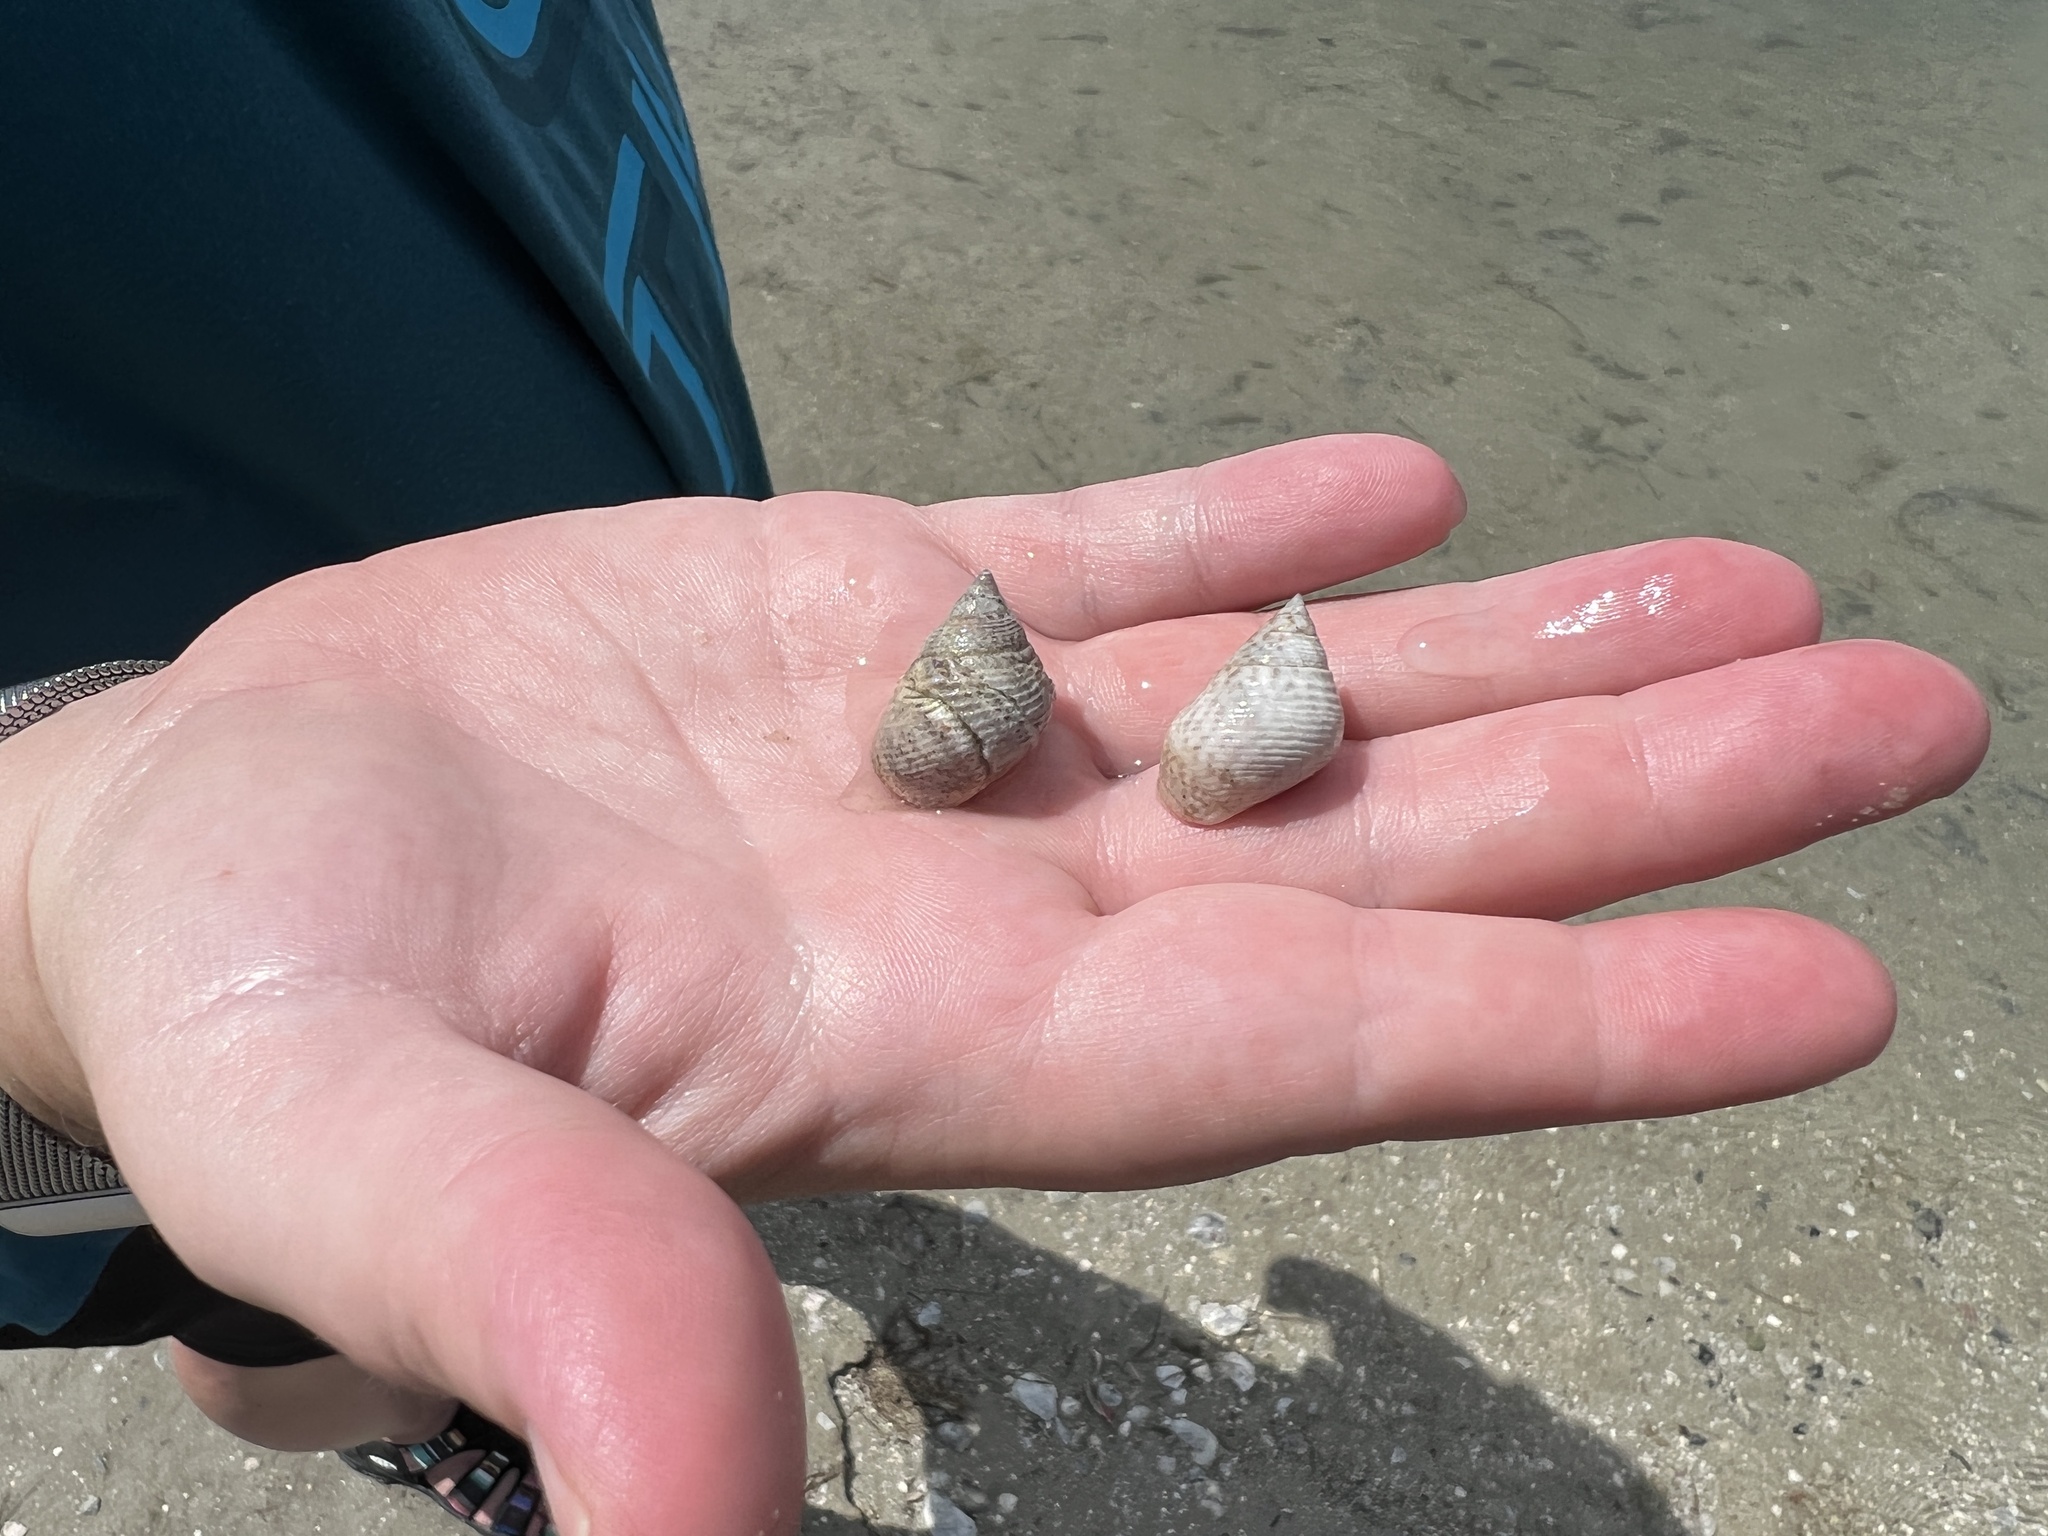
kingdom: Animalia
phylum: Mollusca
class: Gastropoda
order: Littorinimorpha
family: Littorinidae
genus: Littoraria
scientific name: Littoraria irrorata
